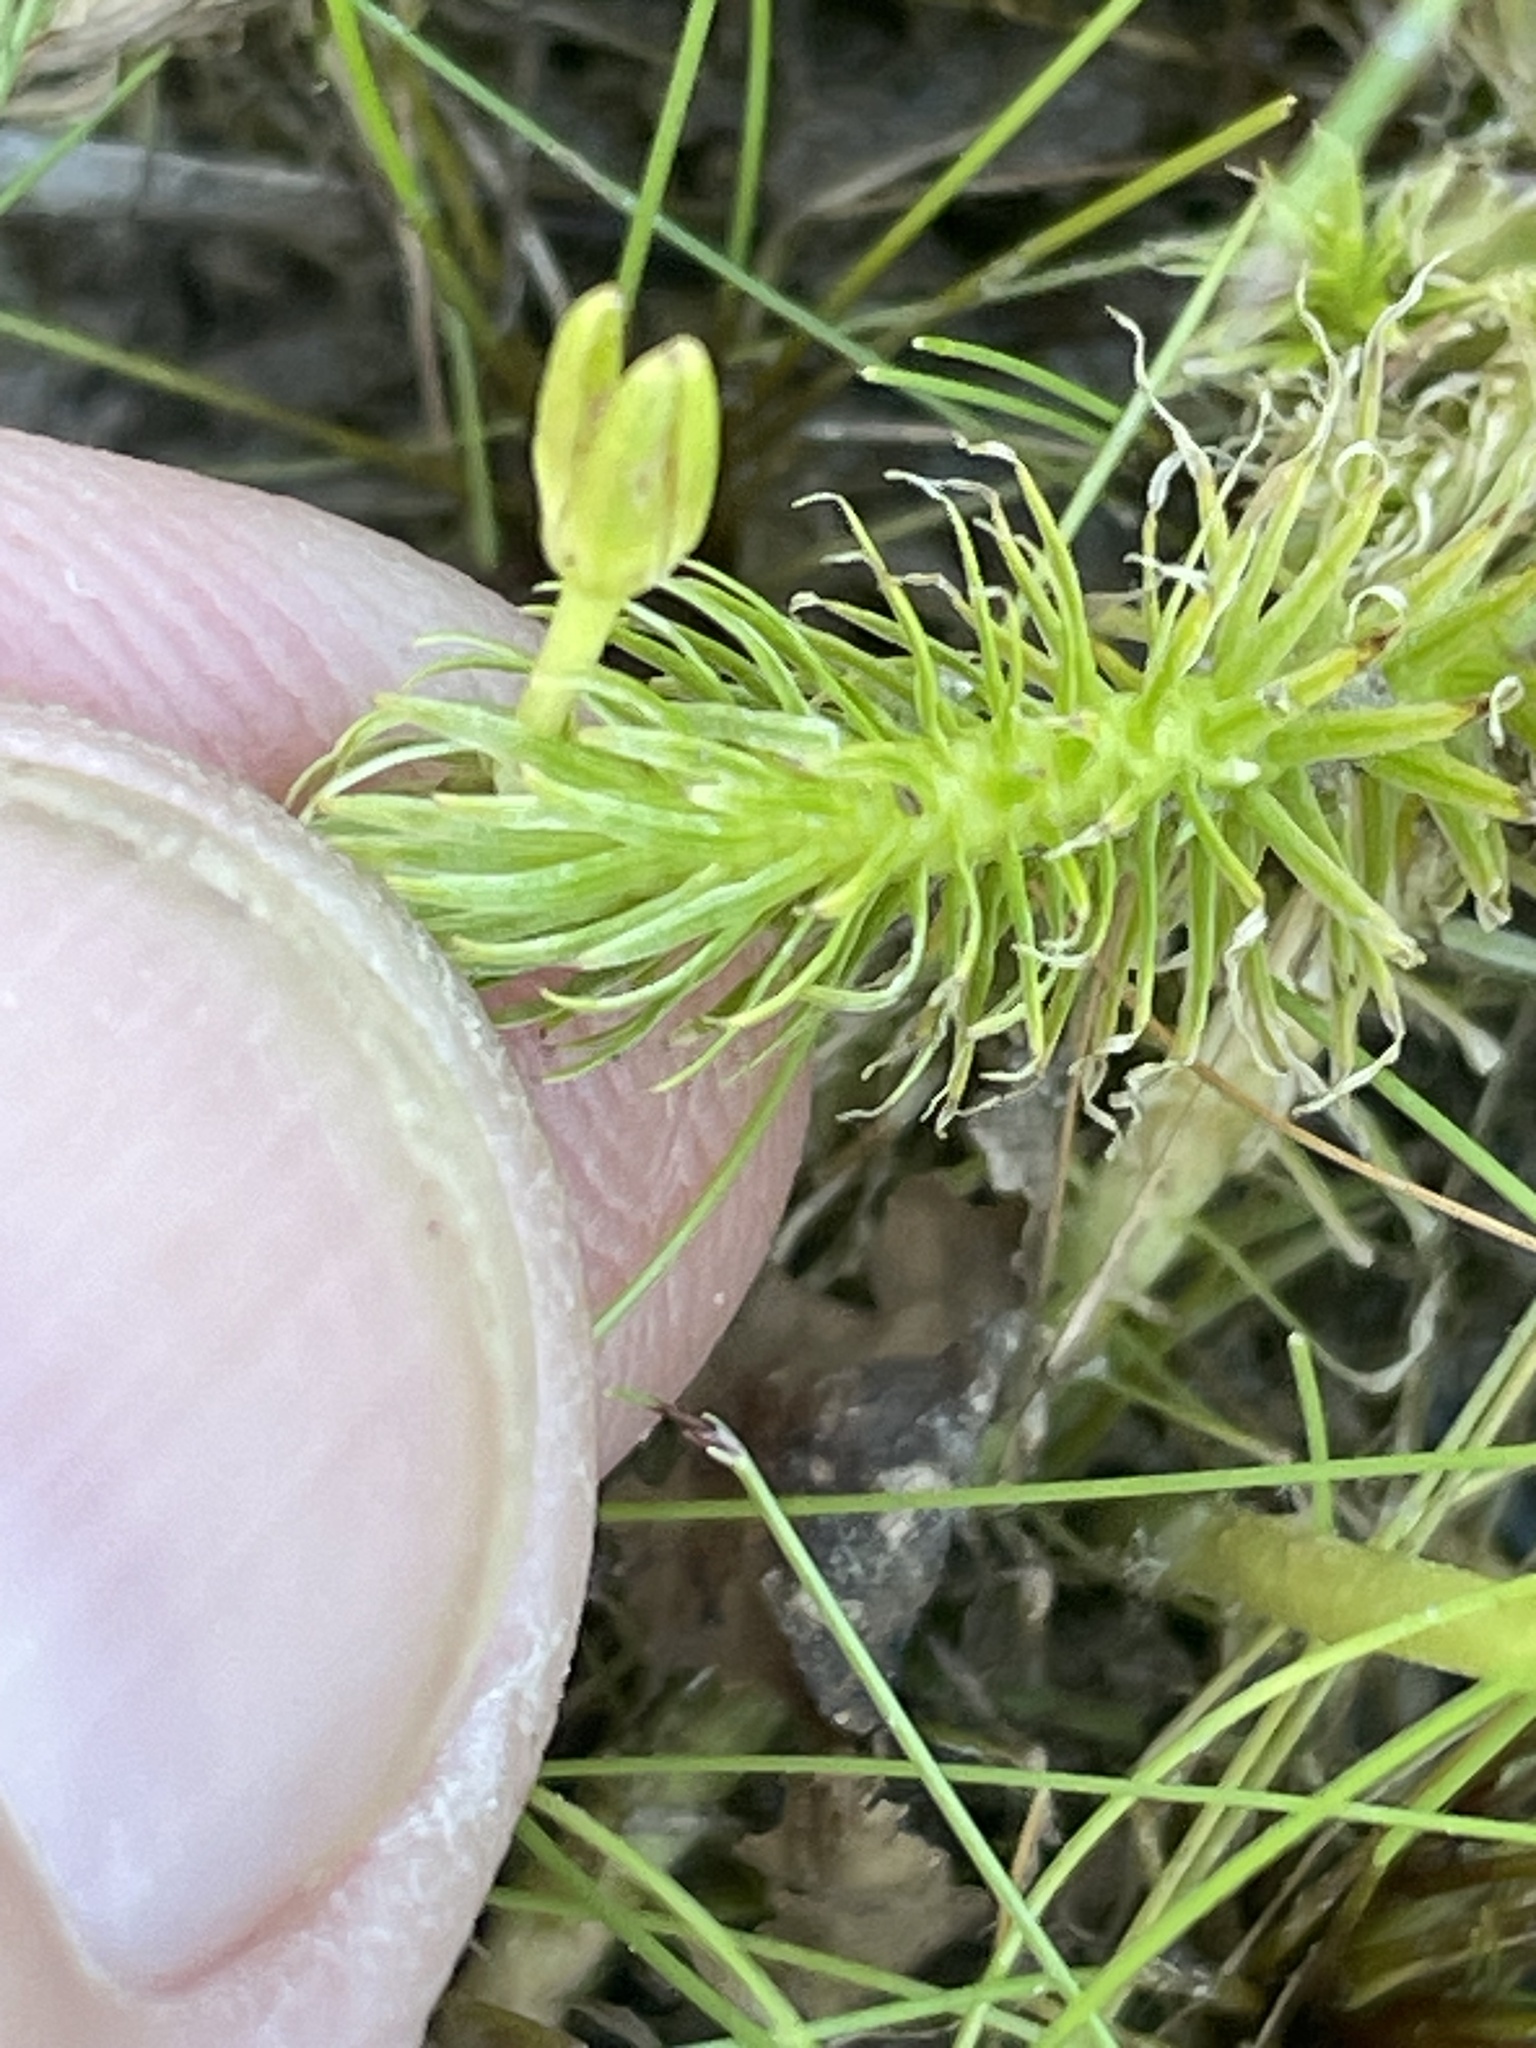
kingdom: Plantae
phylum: Tracheophyta
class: Liliopsida
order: Poales
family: Mayacaceae
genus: Mayaca
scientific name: Mayaca fluviatilis
